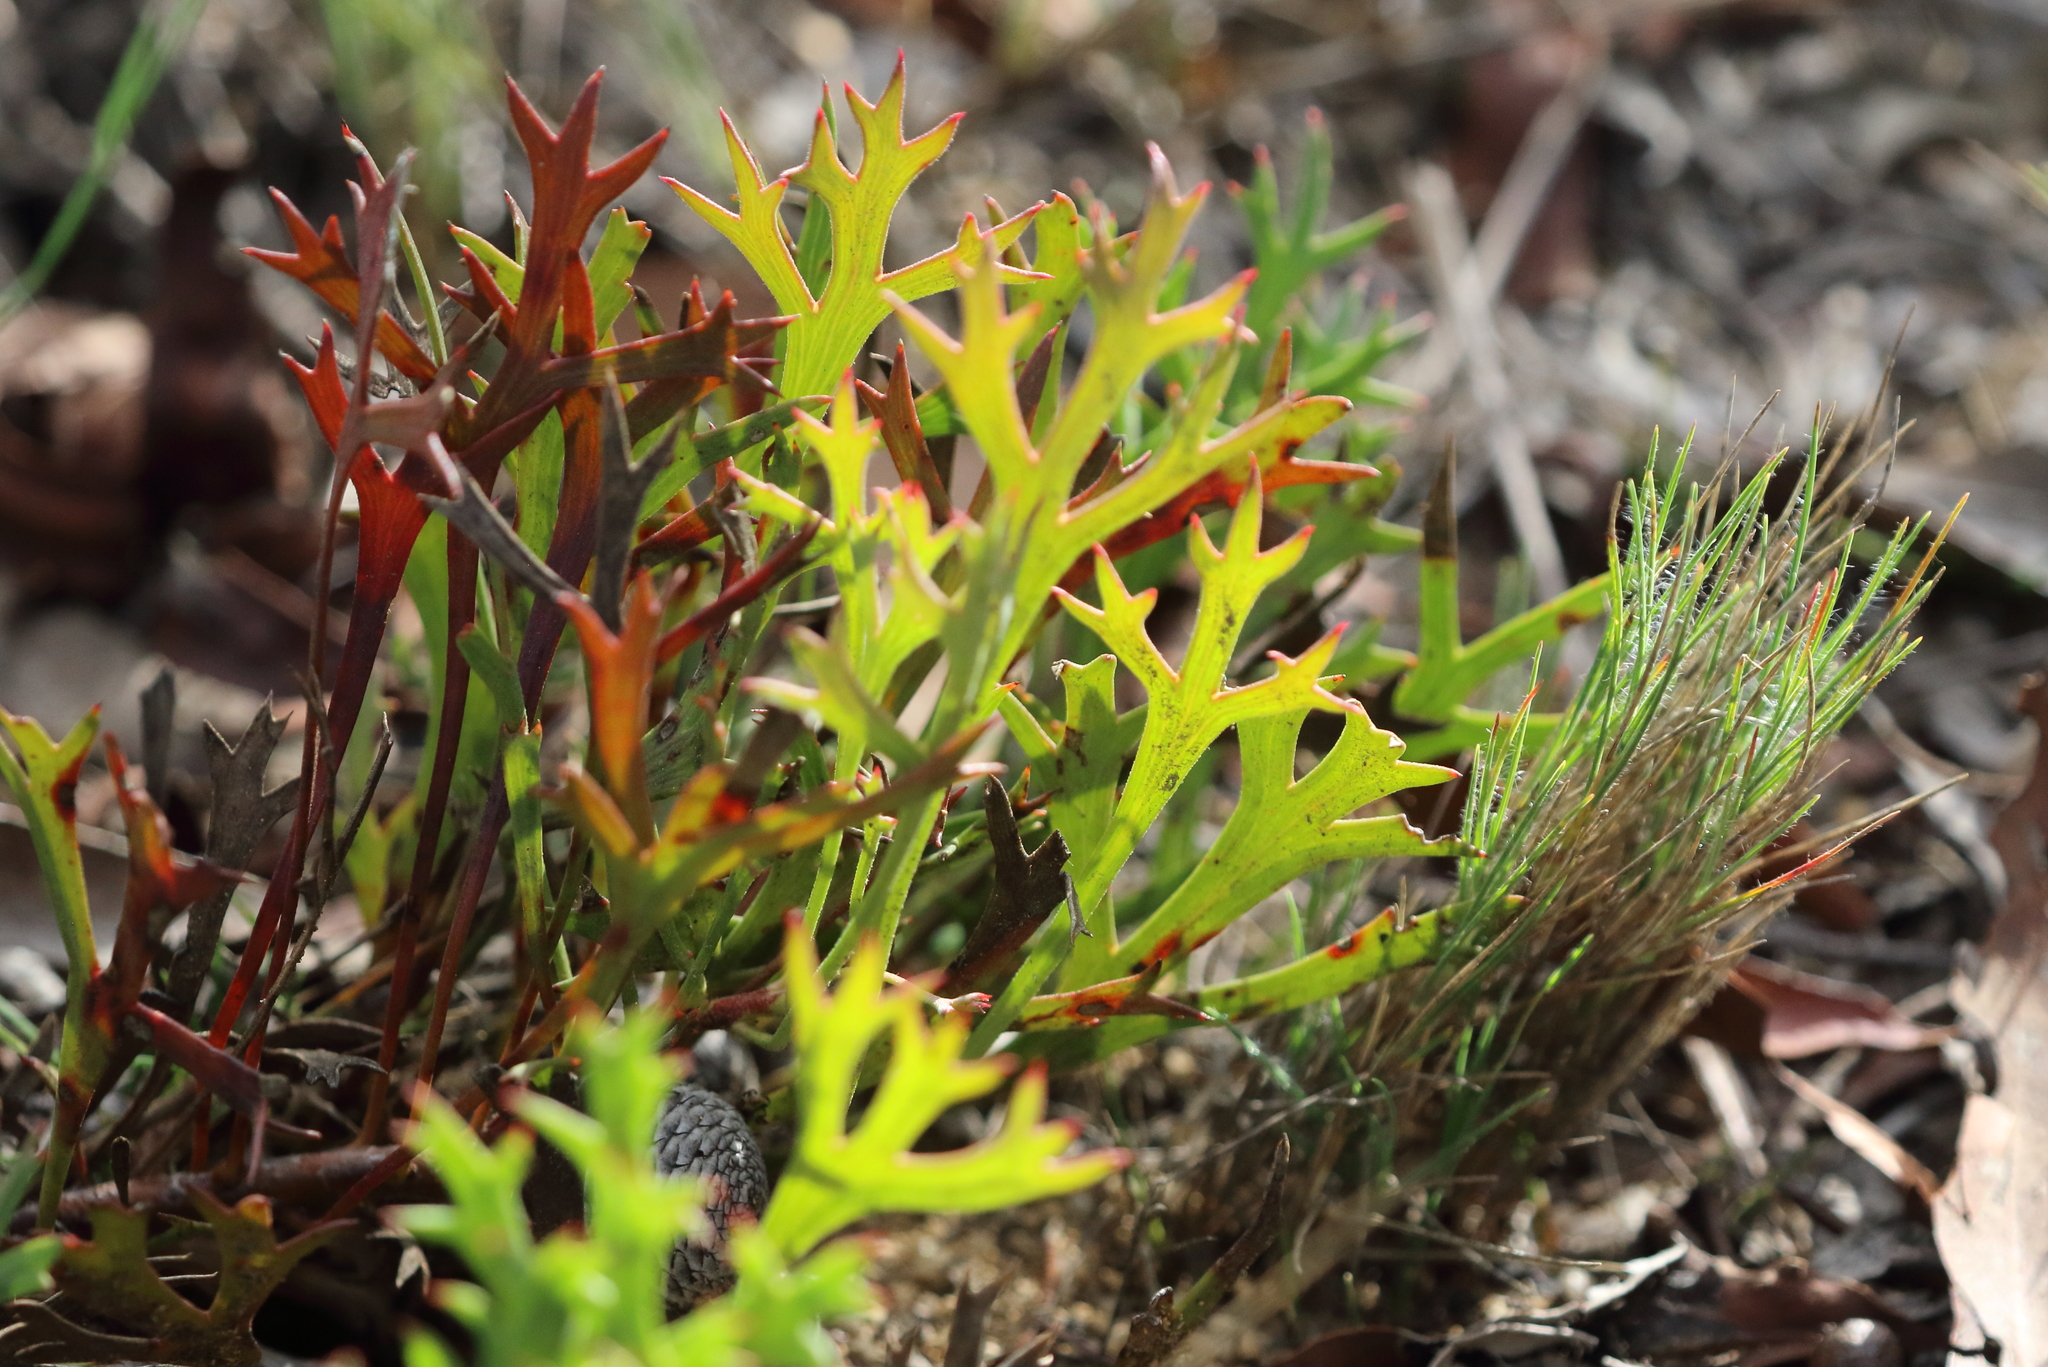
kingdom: Plantae
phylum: Tracheophyta
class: Magnoliopsida
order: Proteales
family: Proteaceae
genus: Isopogon
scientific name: Isopogon petiolaris
